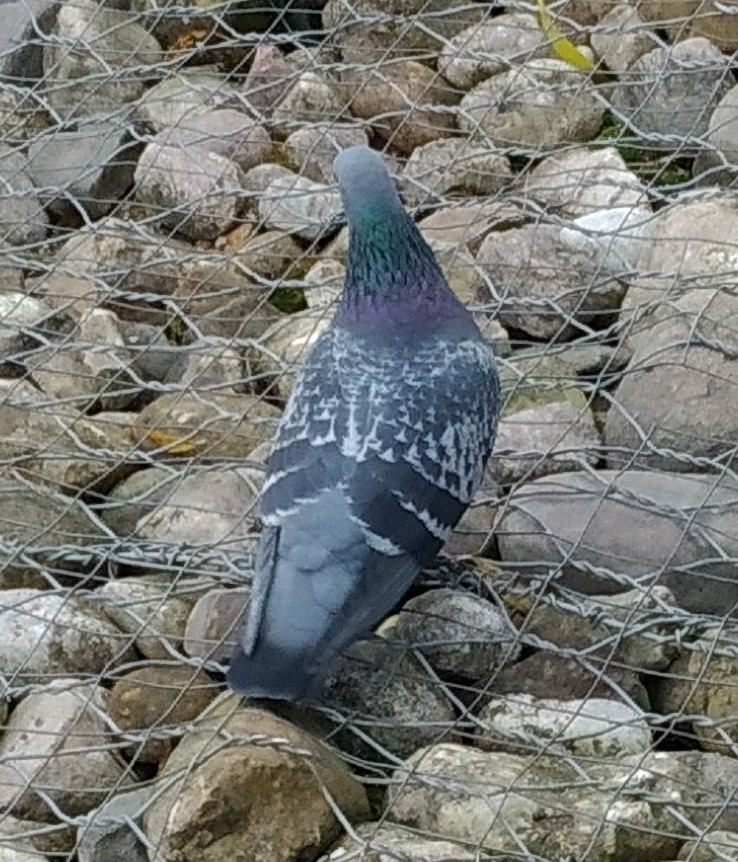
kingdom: Animalia
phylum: Chordata
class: Aves
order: Columbiformes
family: Columbidae
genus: Columba
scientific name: Columba livia
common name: Rock pigeon
